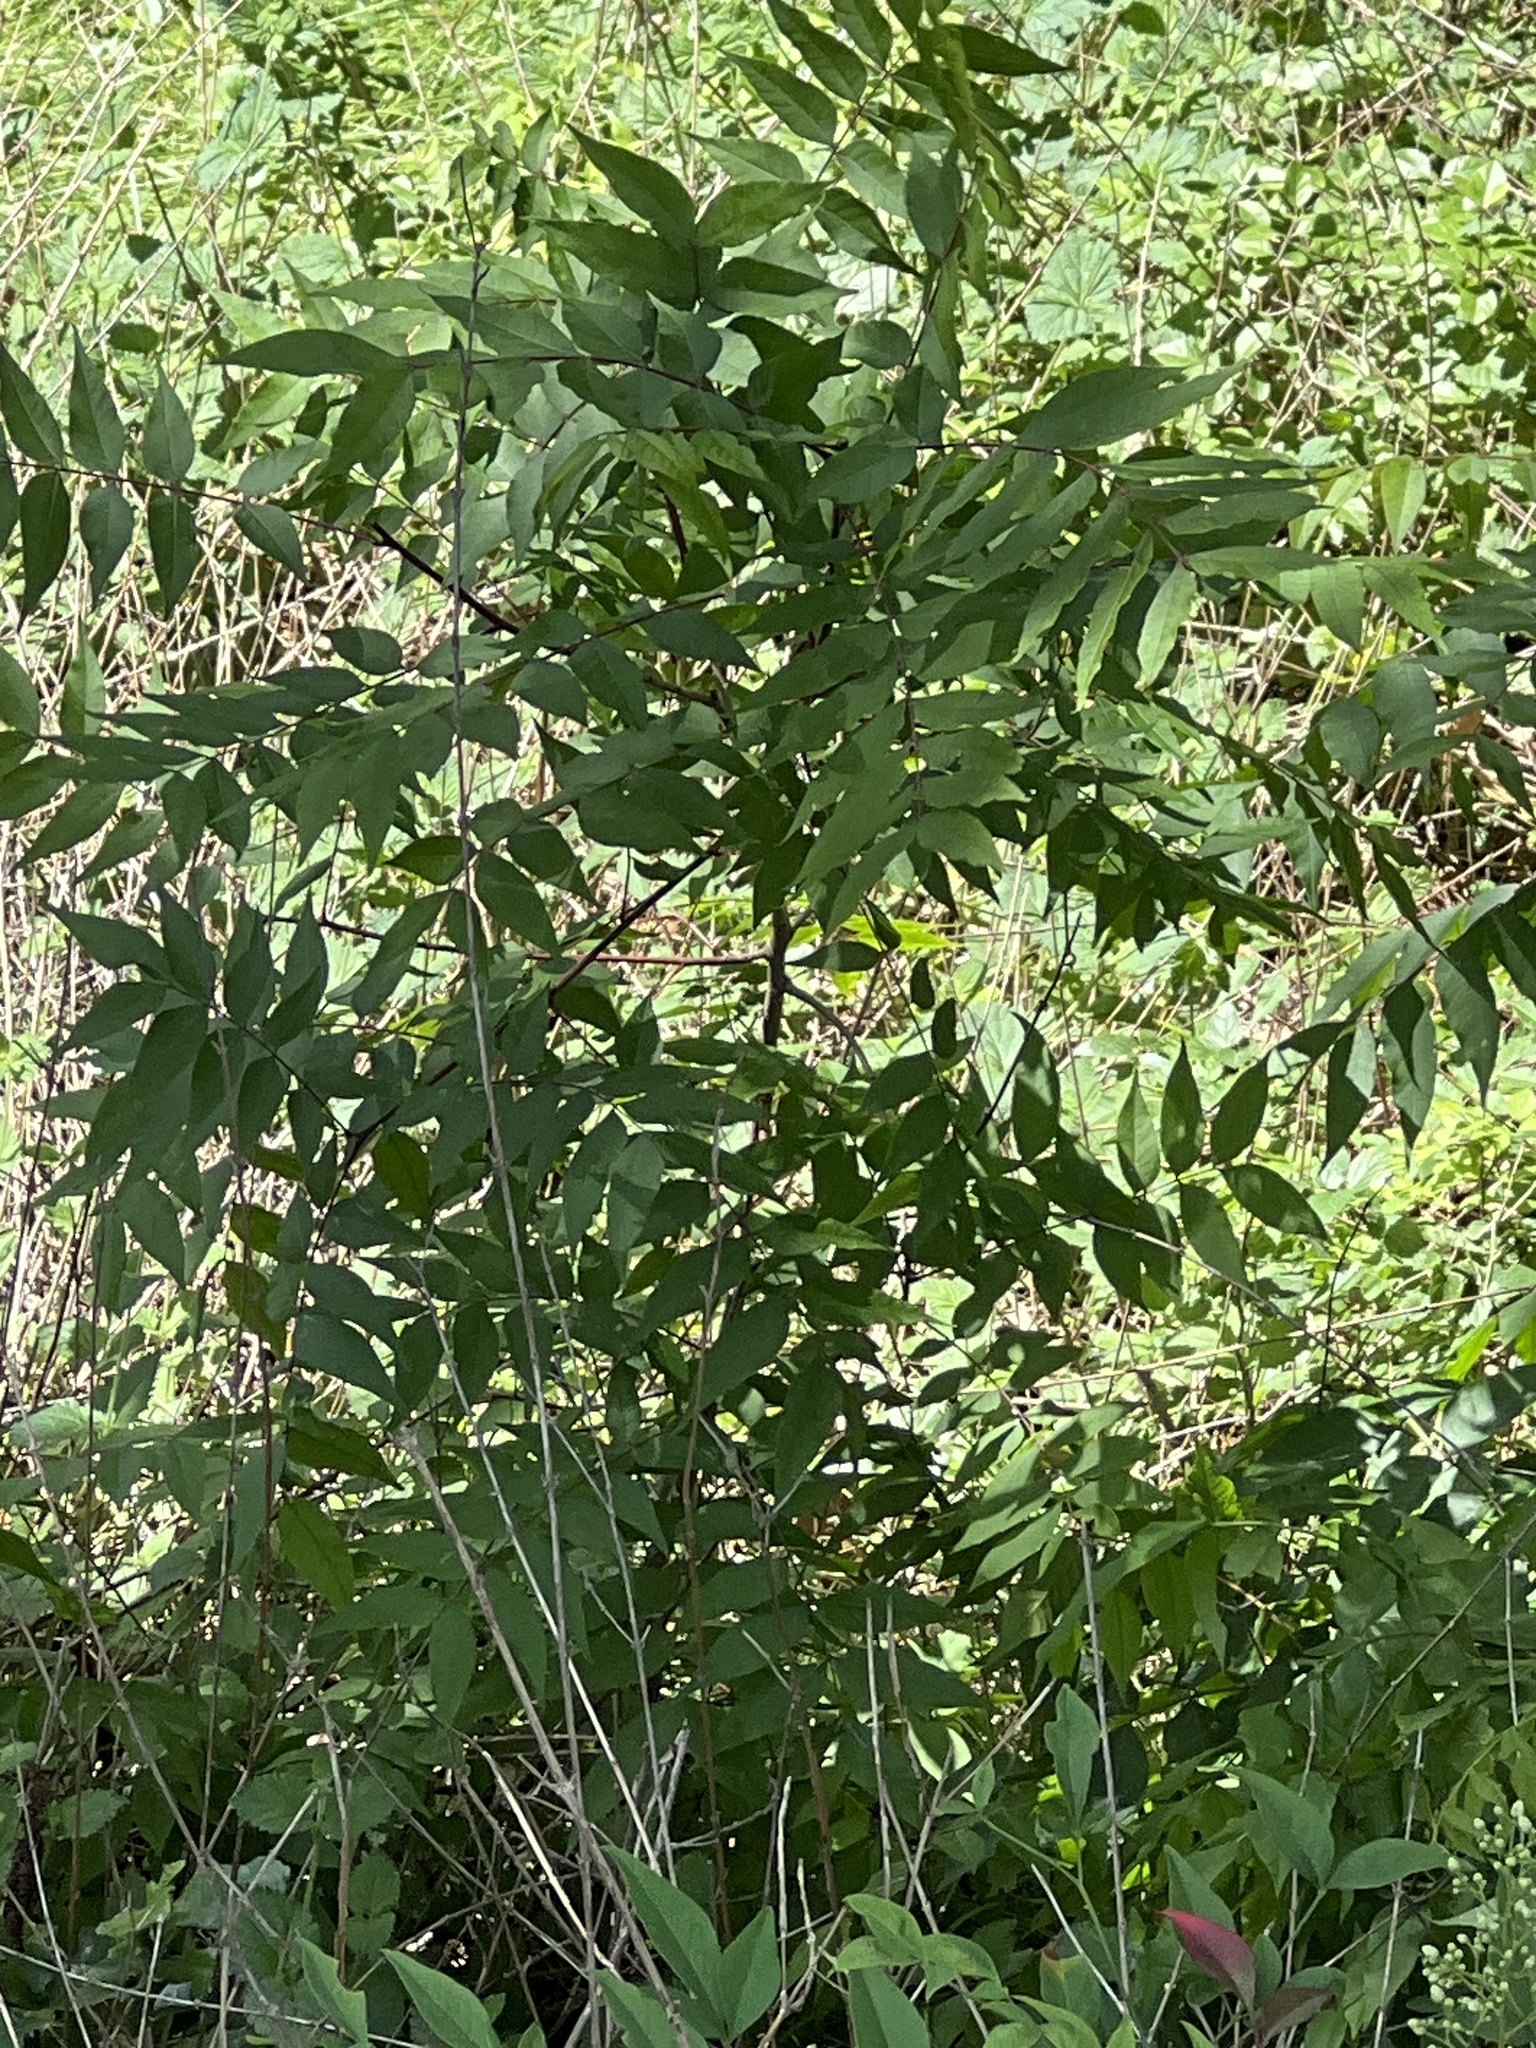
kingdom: Plantae
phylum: Tracheophyta
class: Magnoliopsida
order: Sapindales
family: Sapindaceae
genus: Sapindus
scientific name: Sapindus drummondii
